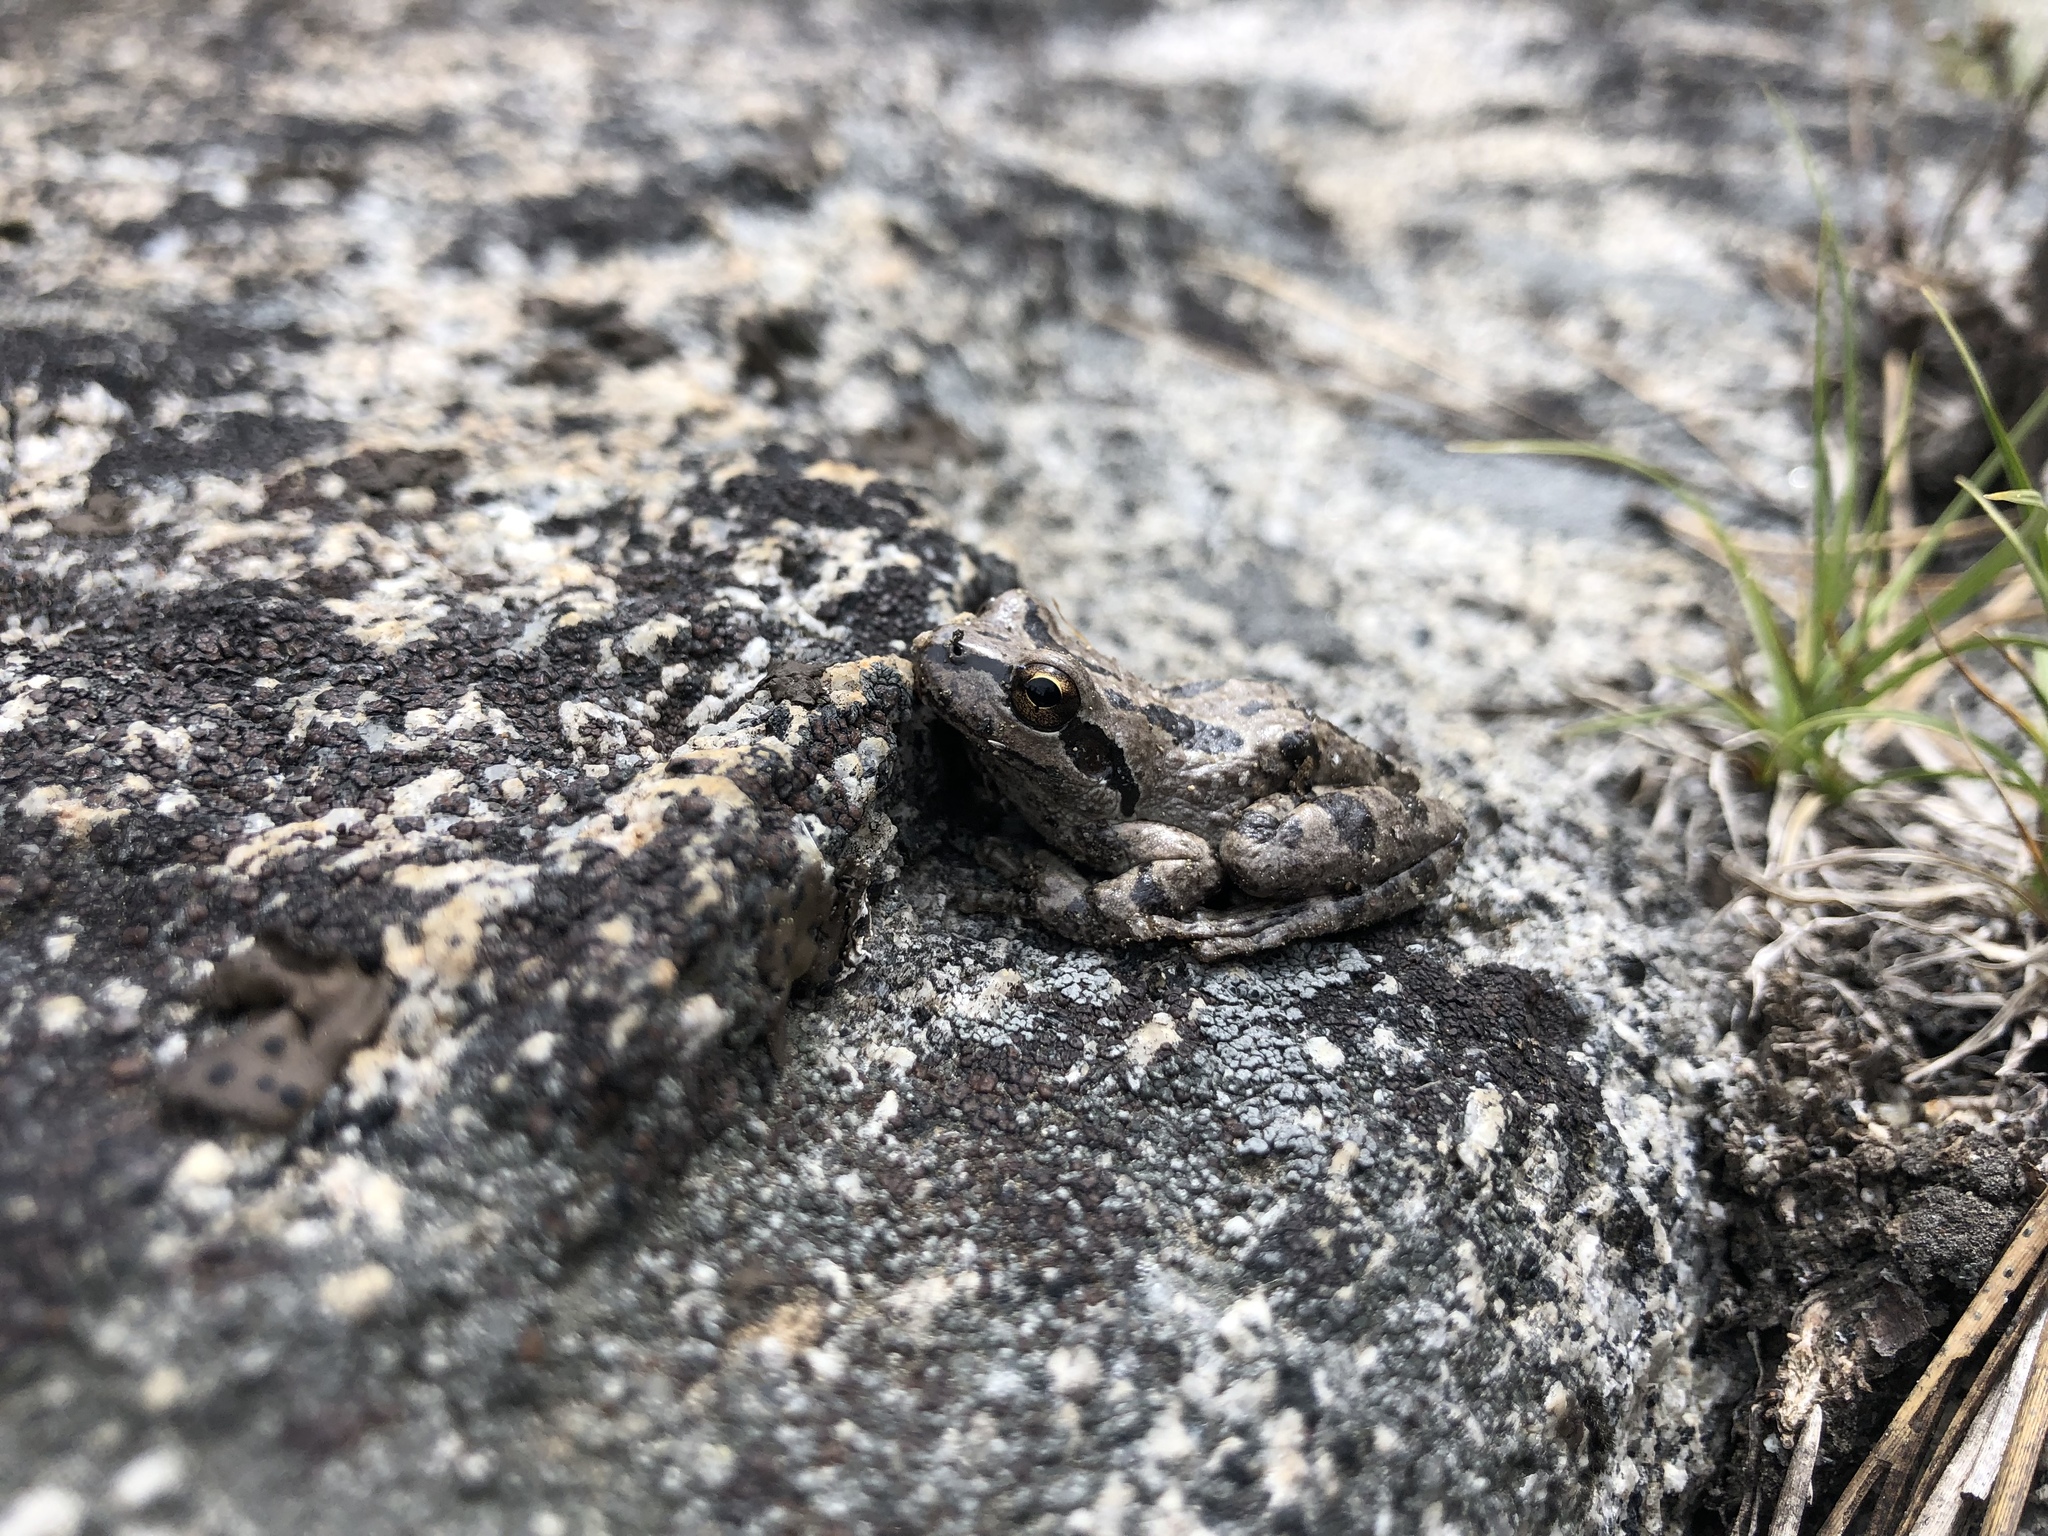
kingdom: Animalia
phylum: Chordata
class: Amphibia
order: Anura
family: Hylidae
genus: Pseudacris
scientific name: Pseudacris regilla
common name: Pacific chorus frog
